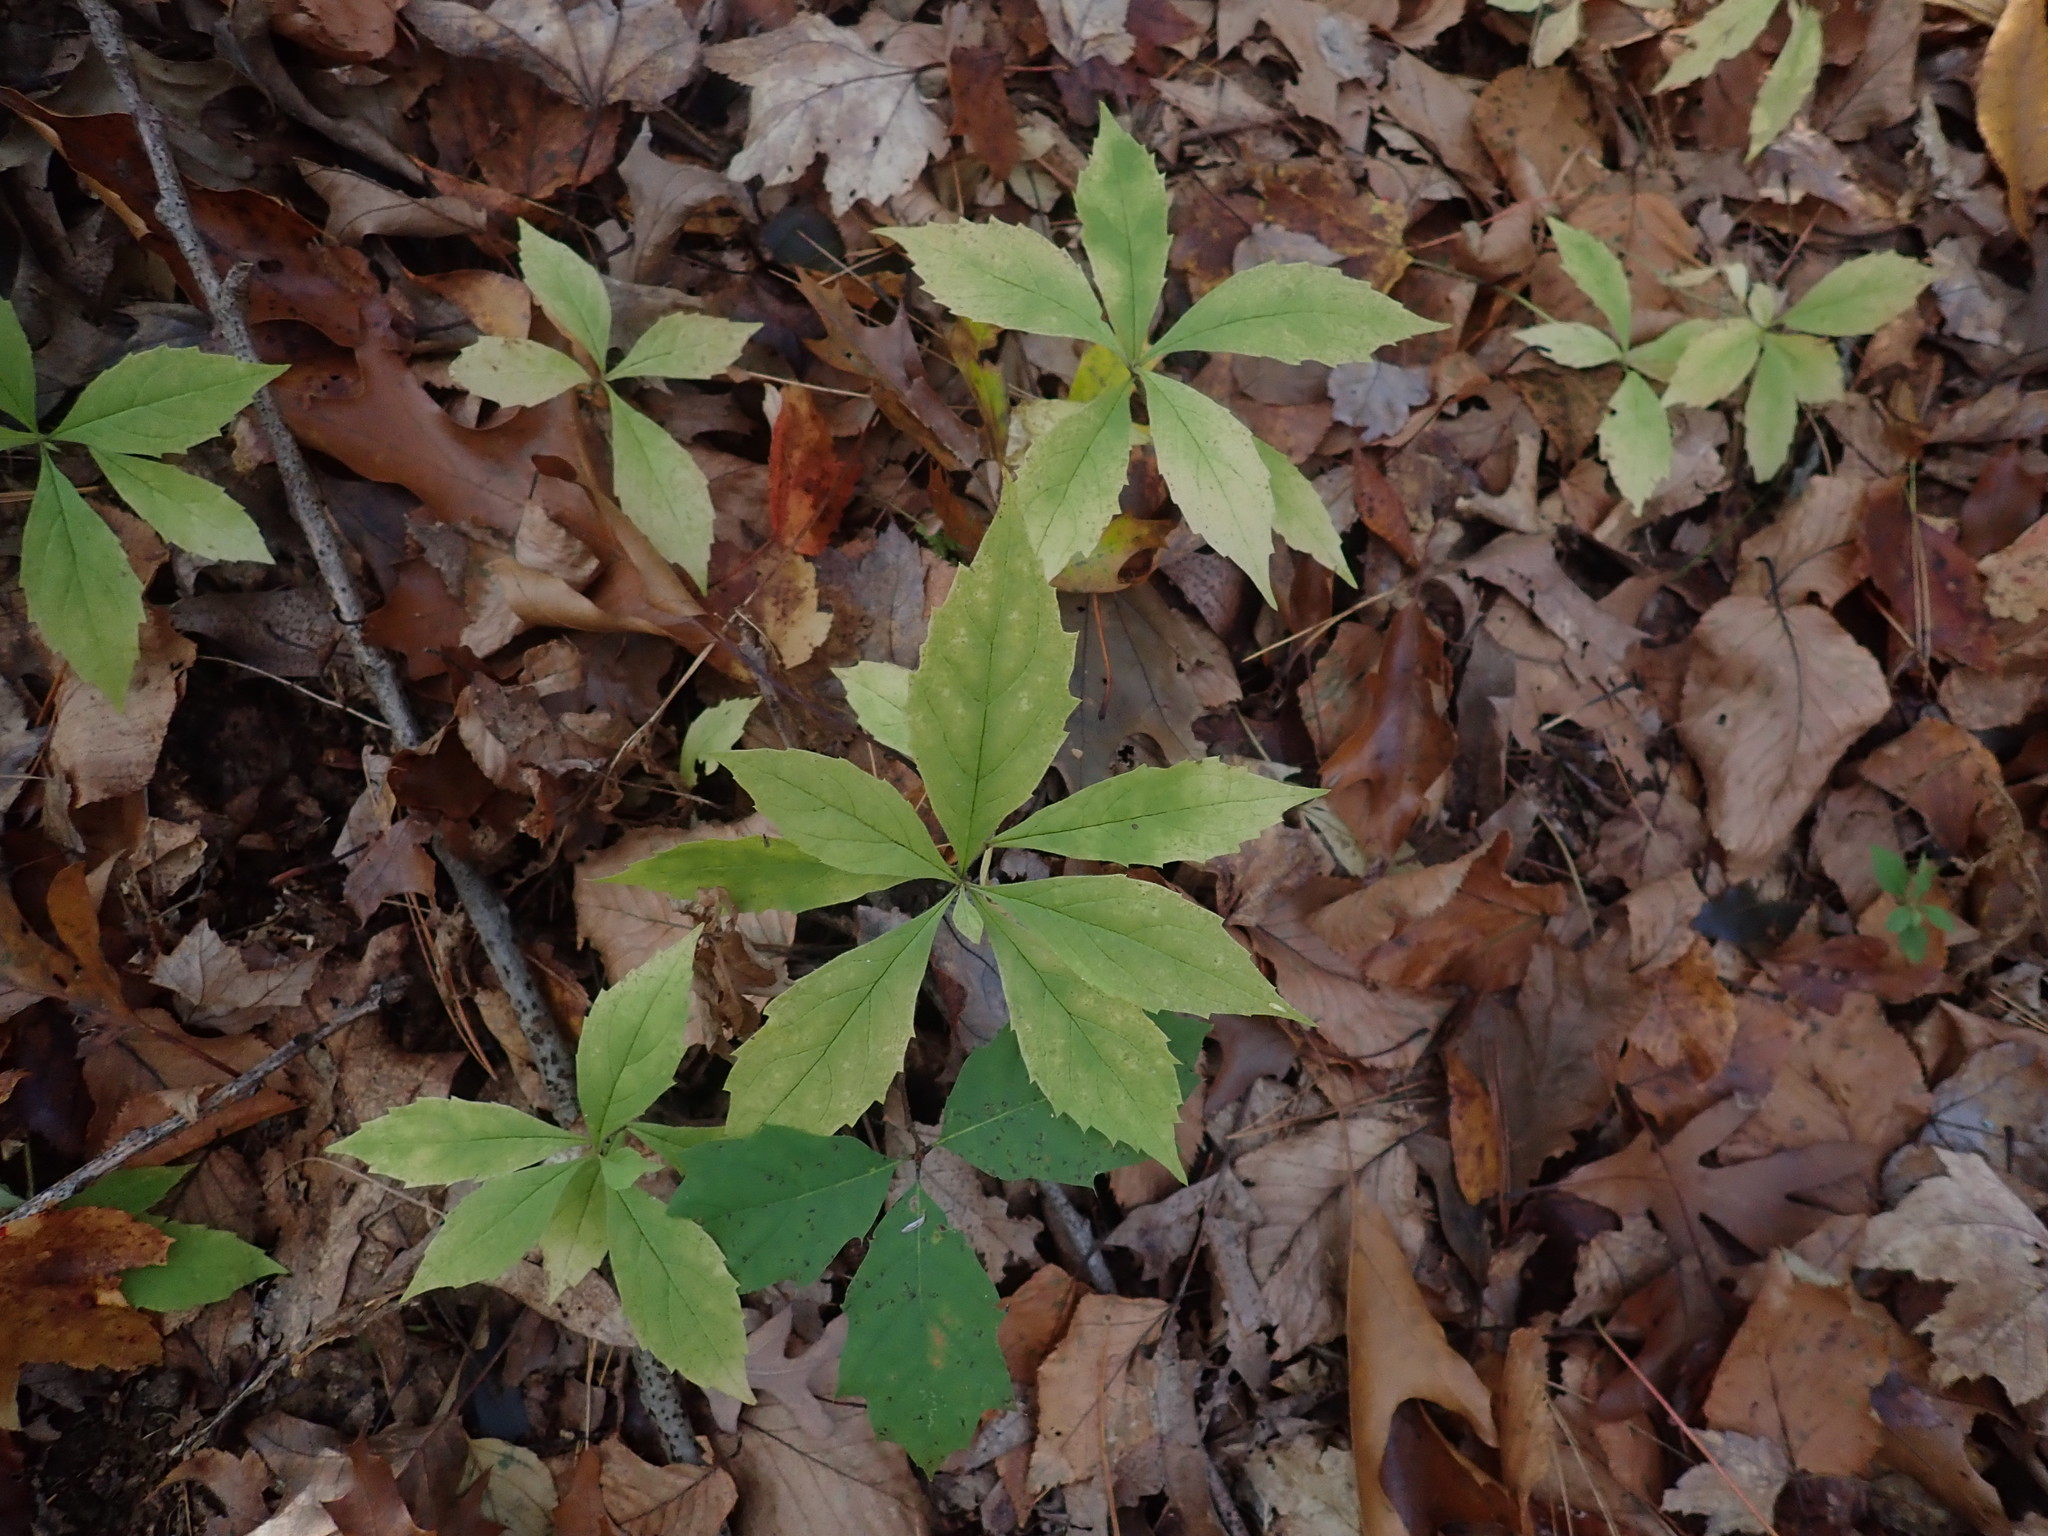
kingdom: Plantae
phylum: Tracheophyta
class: Magnoliopsida
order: Asterales
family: Asteraceae
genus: Oclemena
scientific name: Oclemena acuminata
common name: Mountain aster
